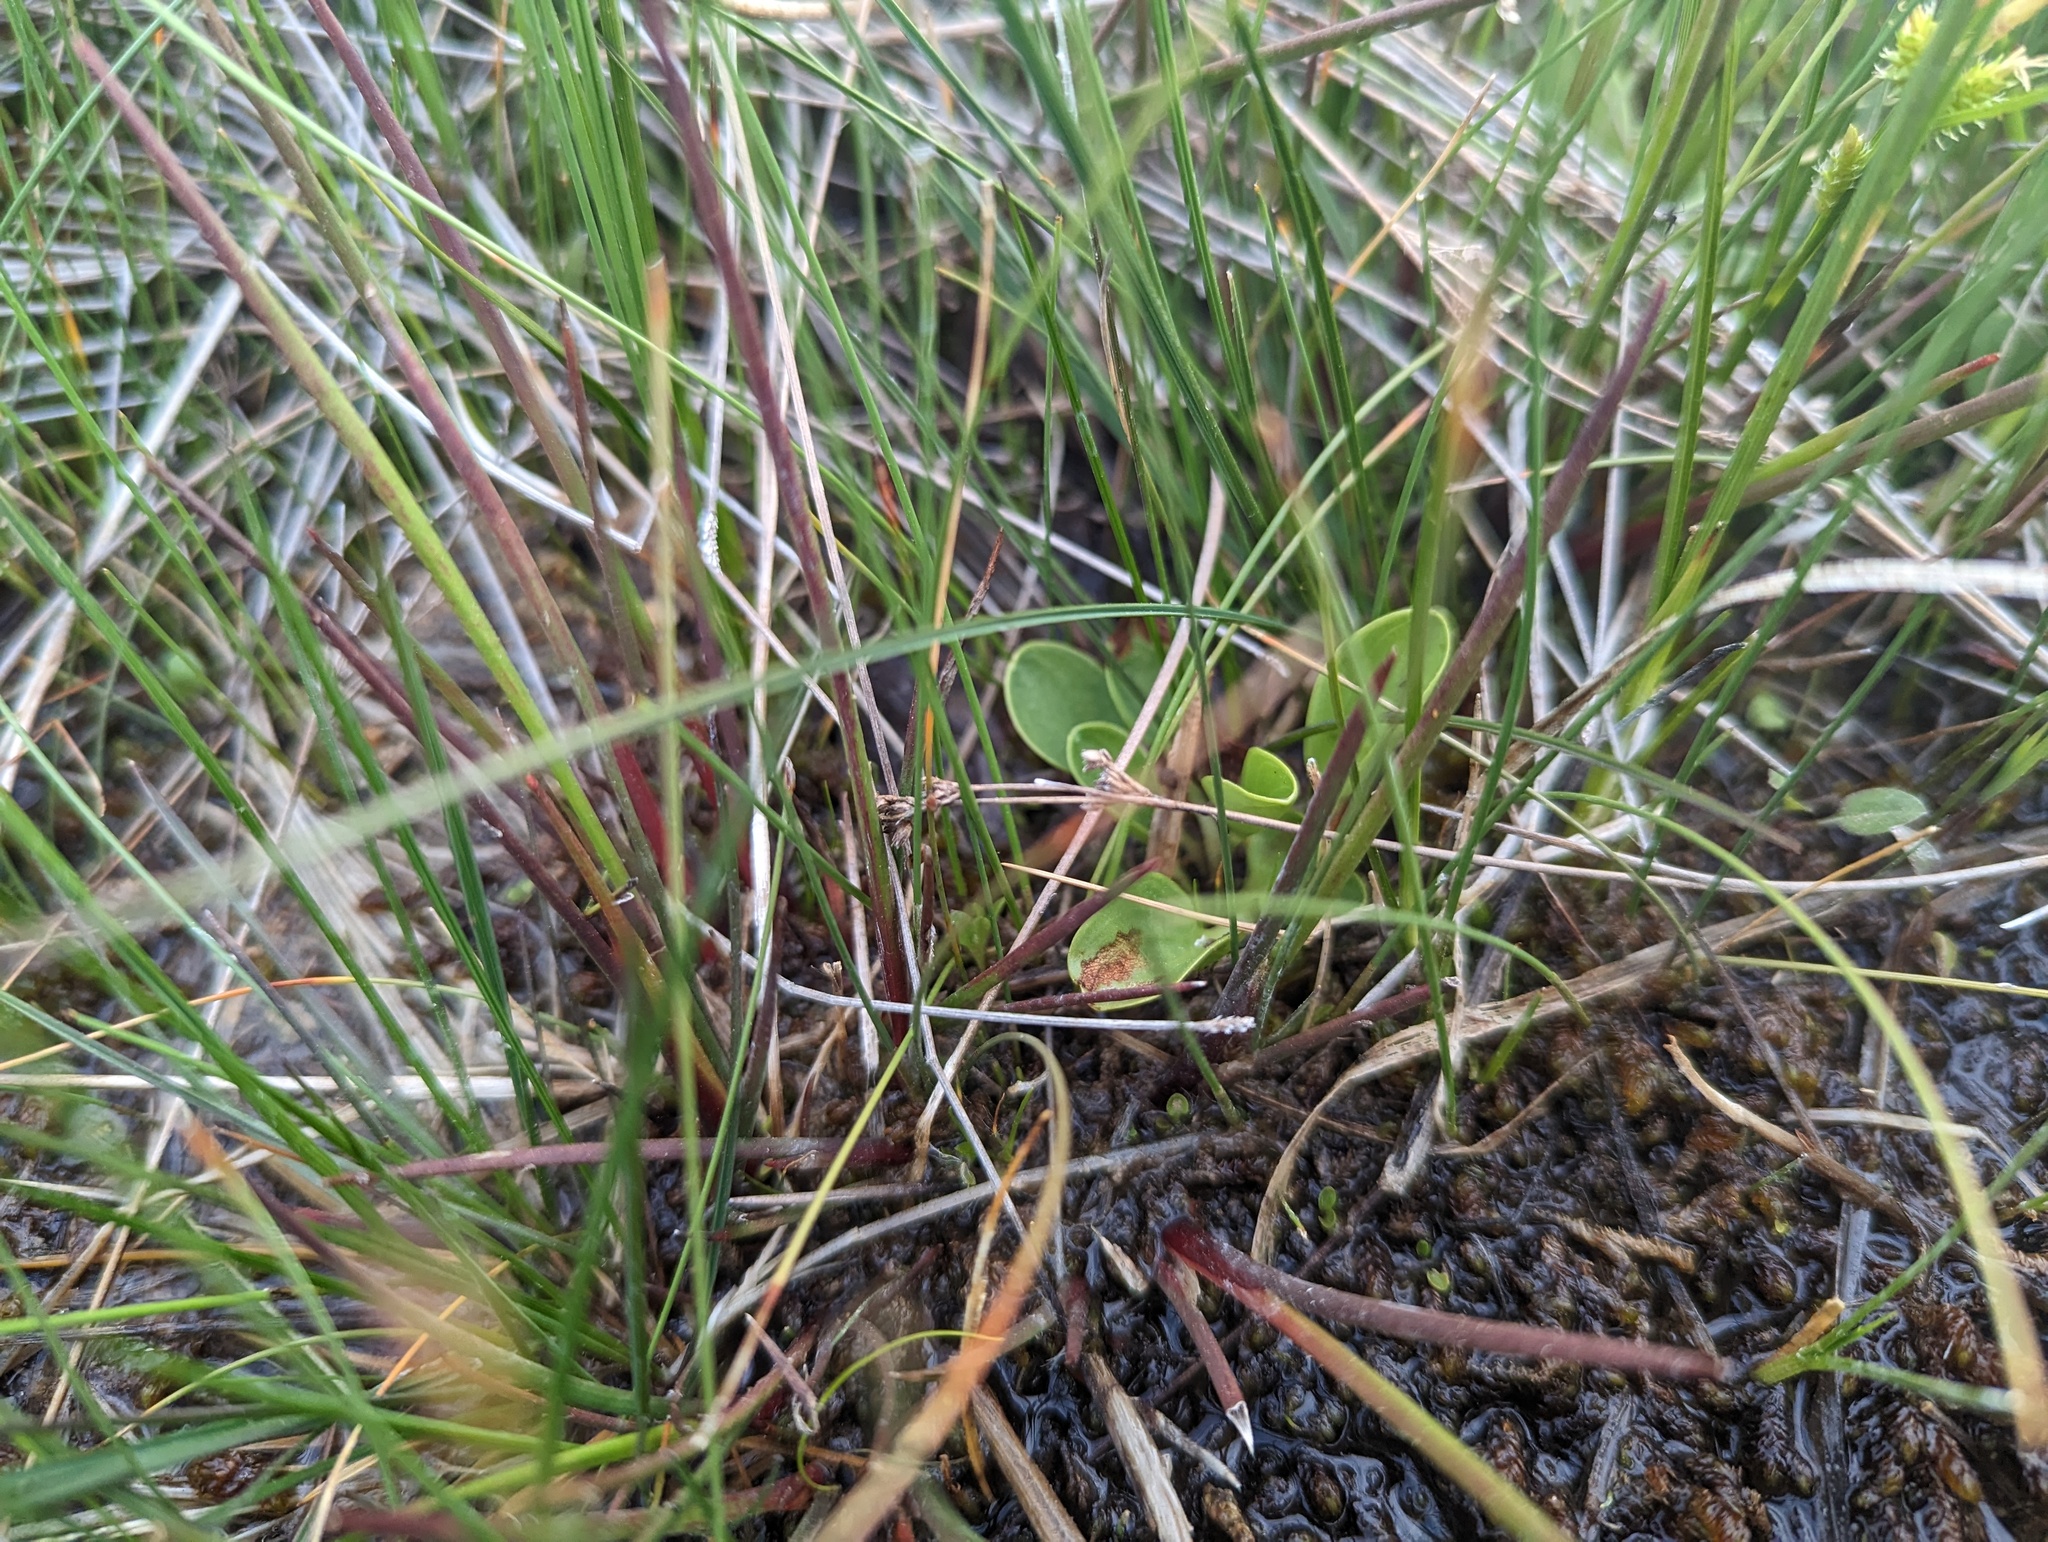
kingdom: Plantae
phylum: Tracheophyta
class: Magnoliopsida
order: Celastrales
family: Parnassiaceae
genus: Parnassia
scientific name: Parnassia glauca
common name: American grass-of-parnassus
